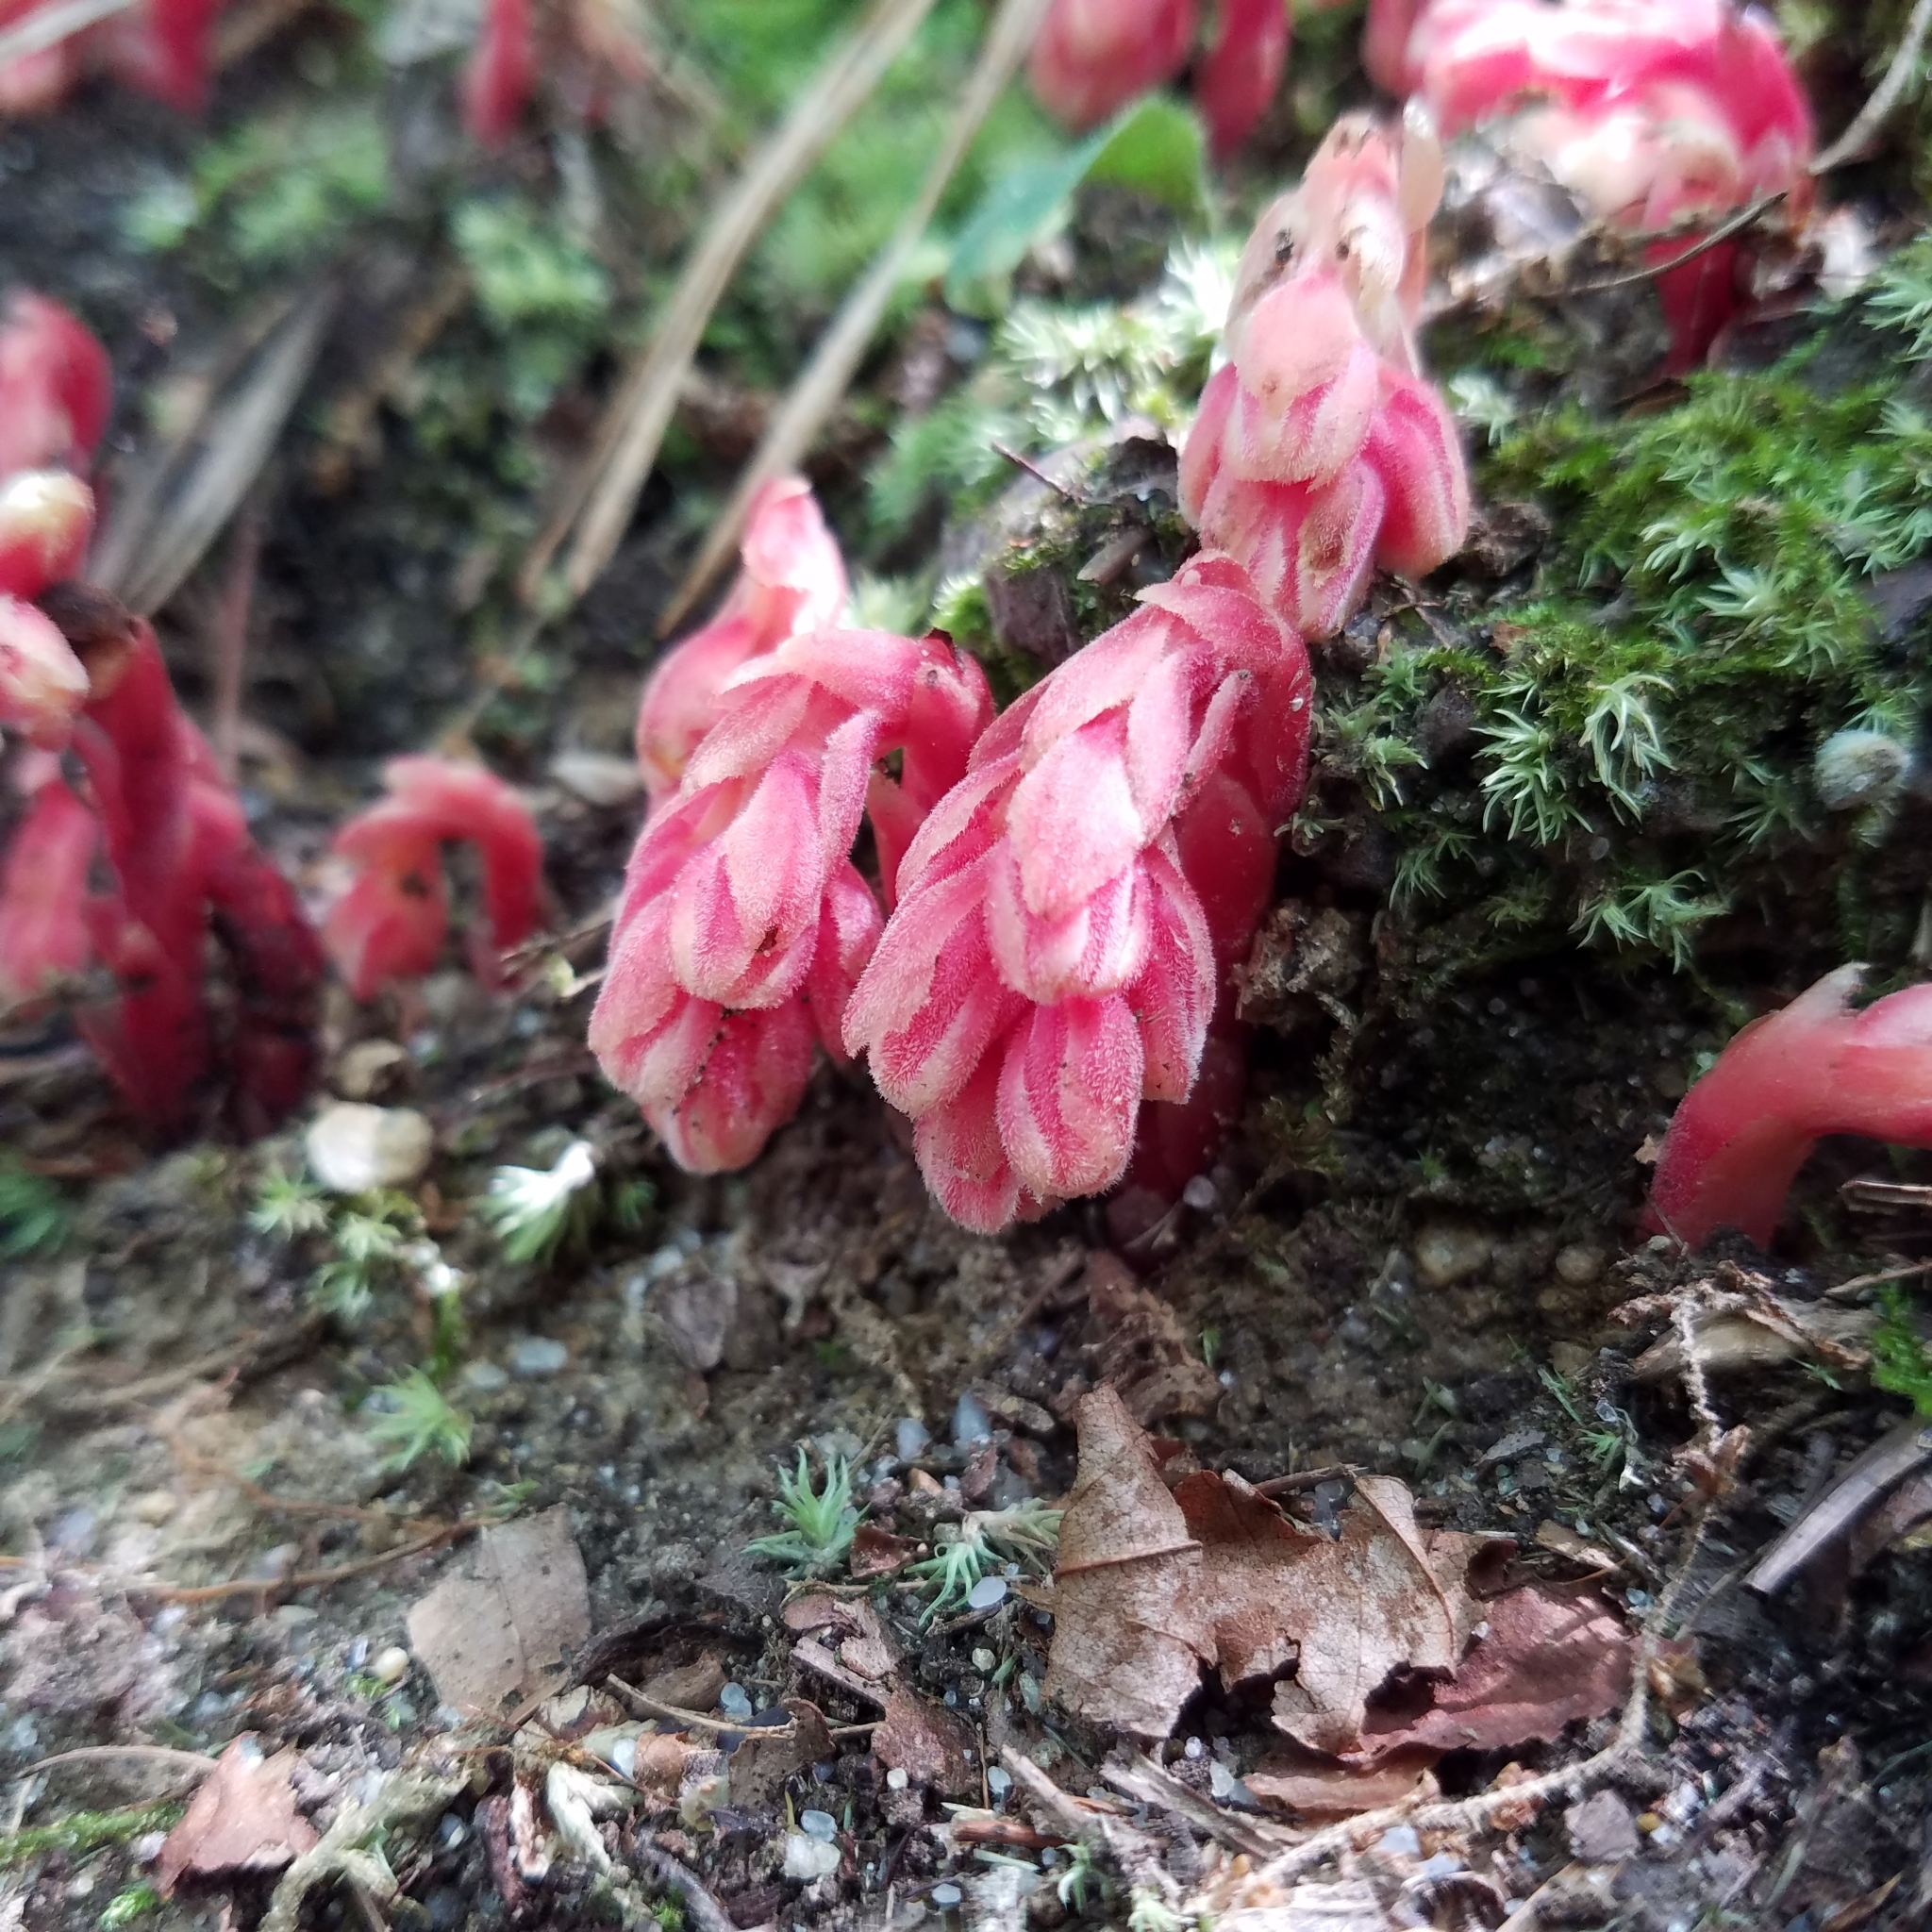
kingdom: Plantae
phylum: Tracheophyta
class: Magnoliopsida
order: Ericales
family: Ericaceae
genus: Hypopitys
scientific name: Hypopitys monotropa
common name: Yellow bird's-nest
